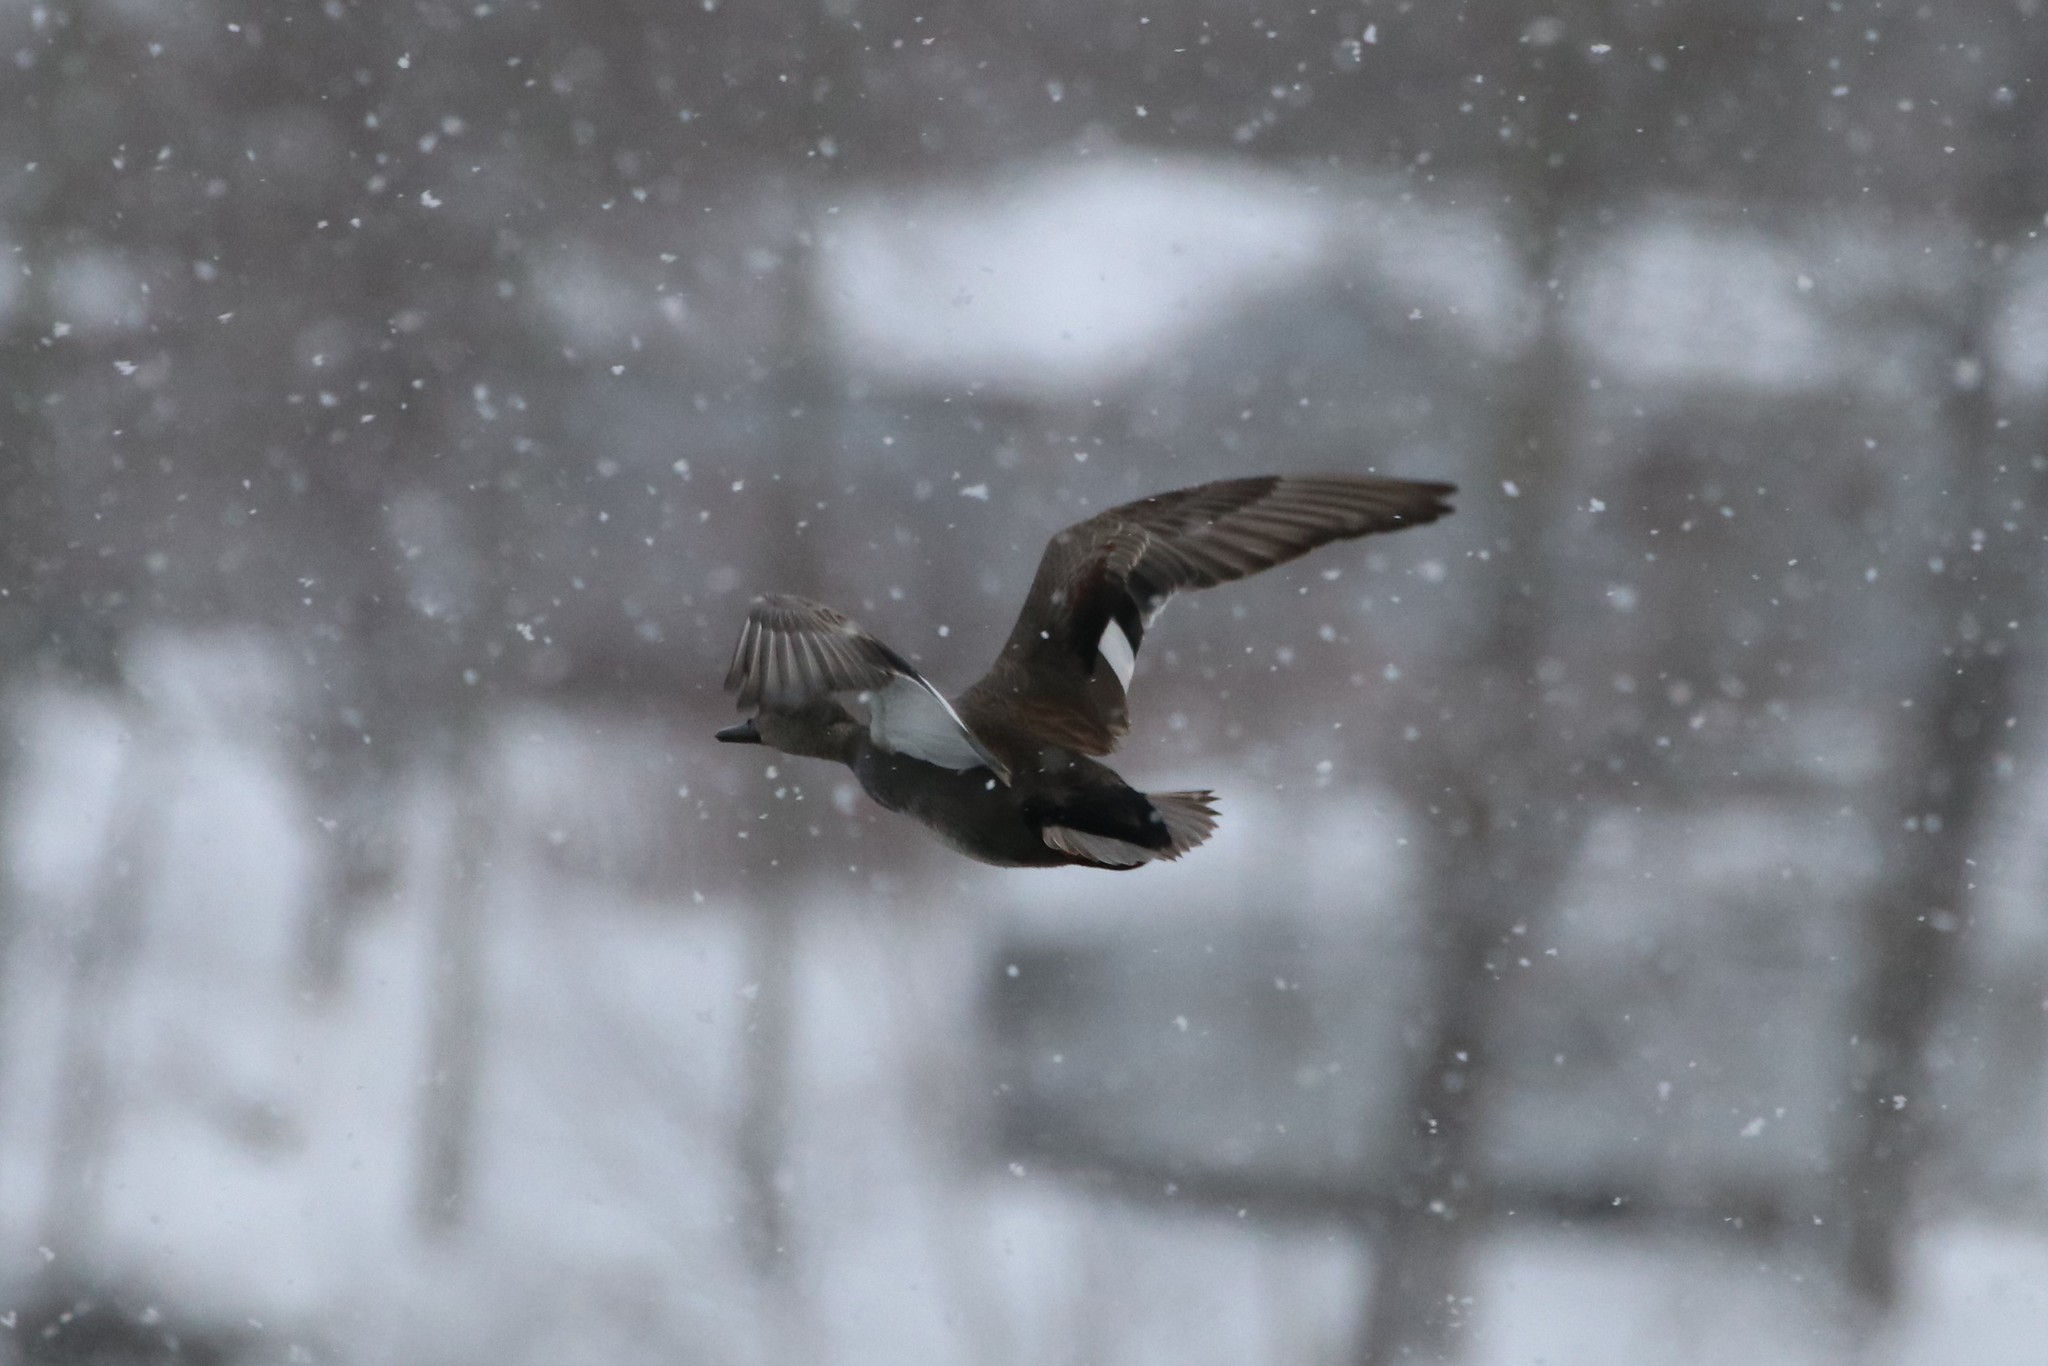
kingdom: Animalia
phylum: Chordata
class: Aves
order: Anseriformes
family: Anatidae
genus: Mareca
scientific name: Mareca strepera
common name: Gadwall
